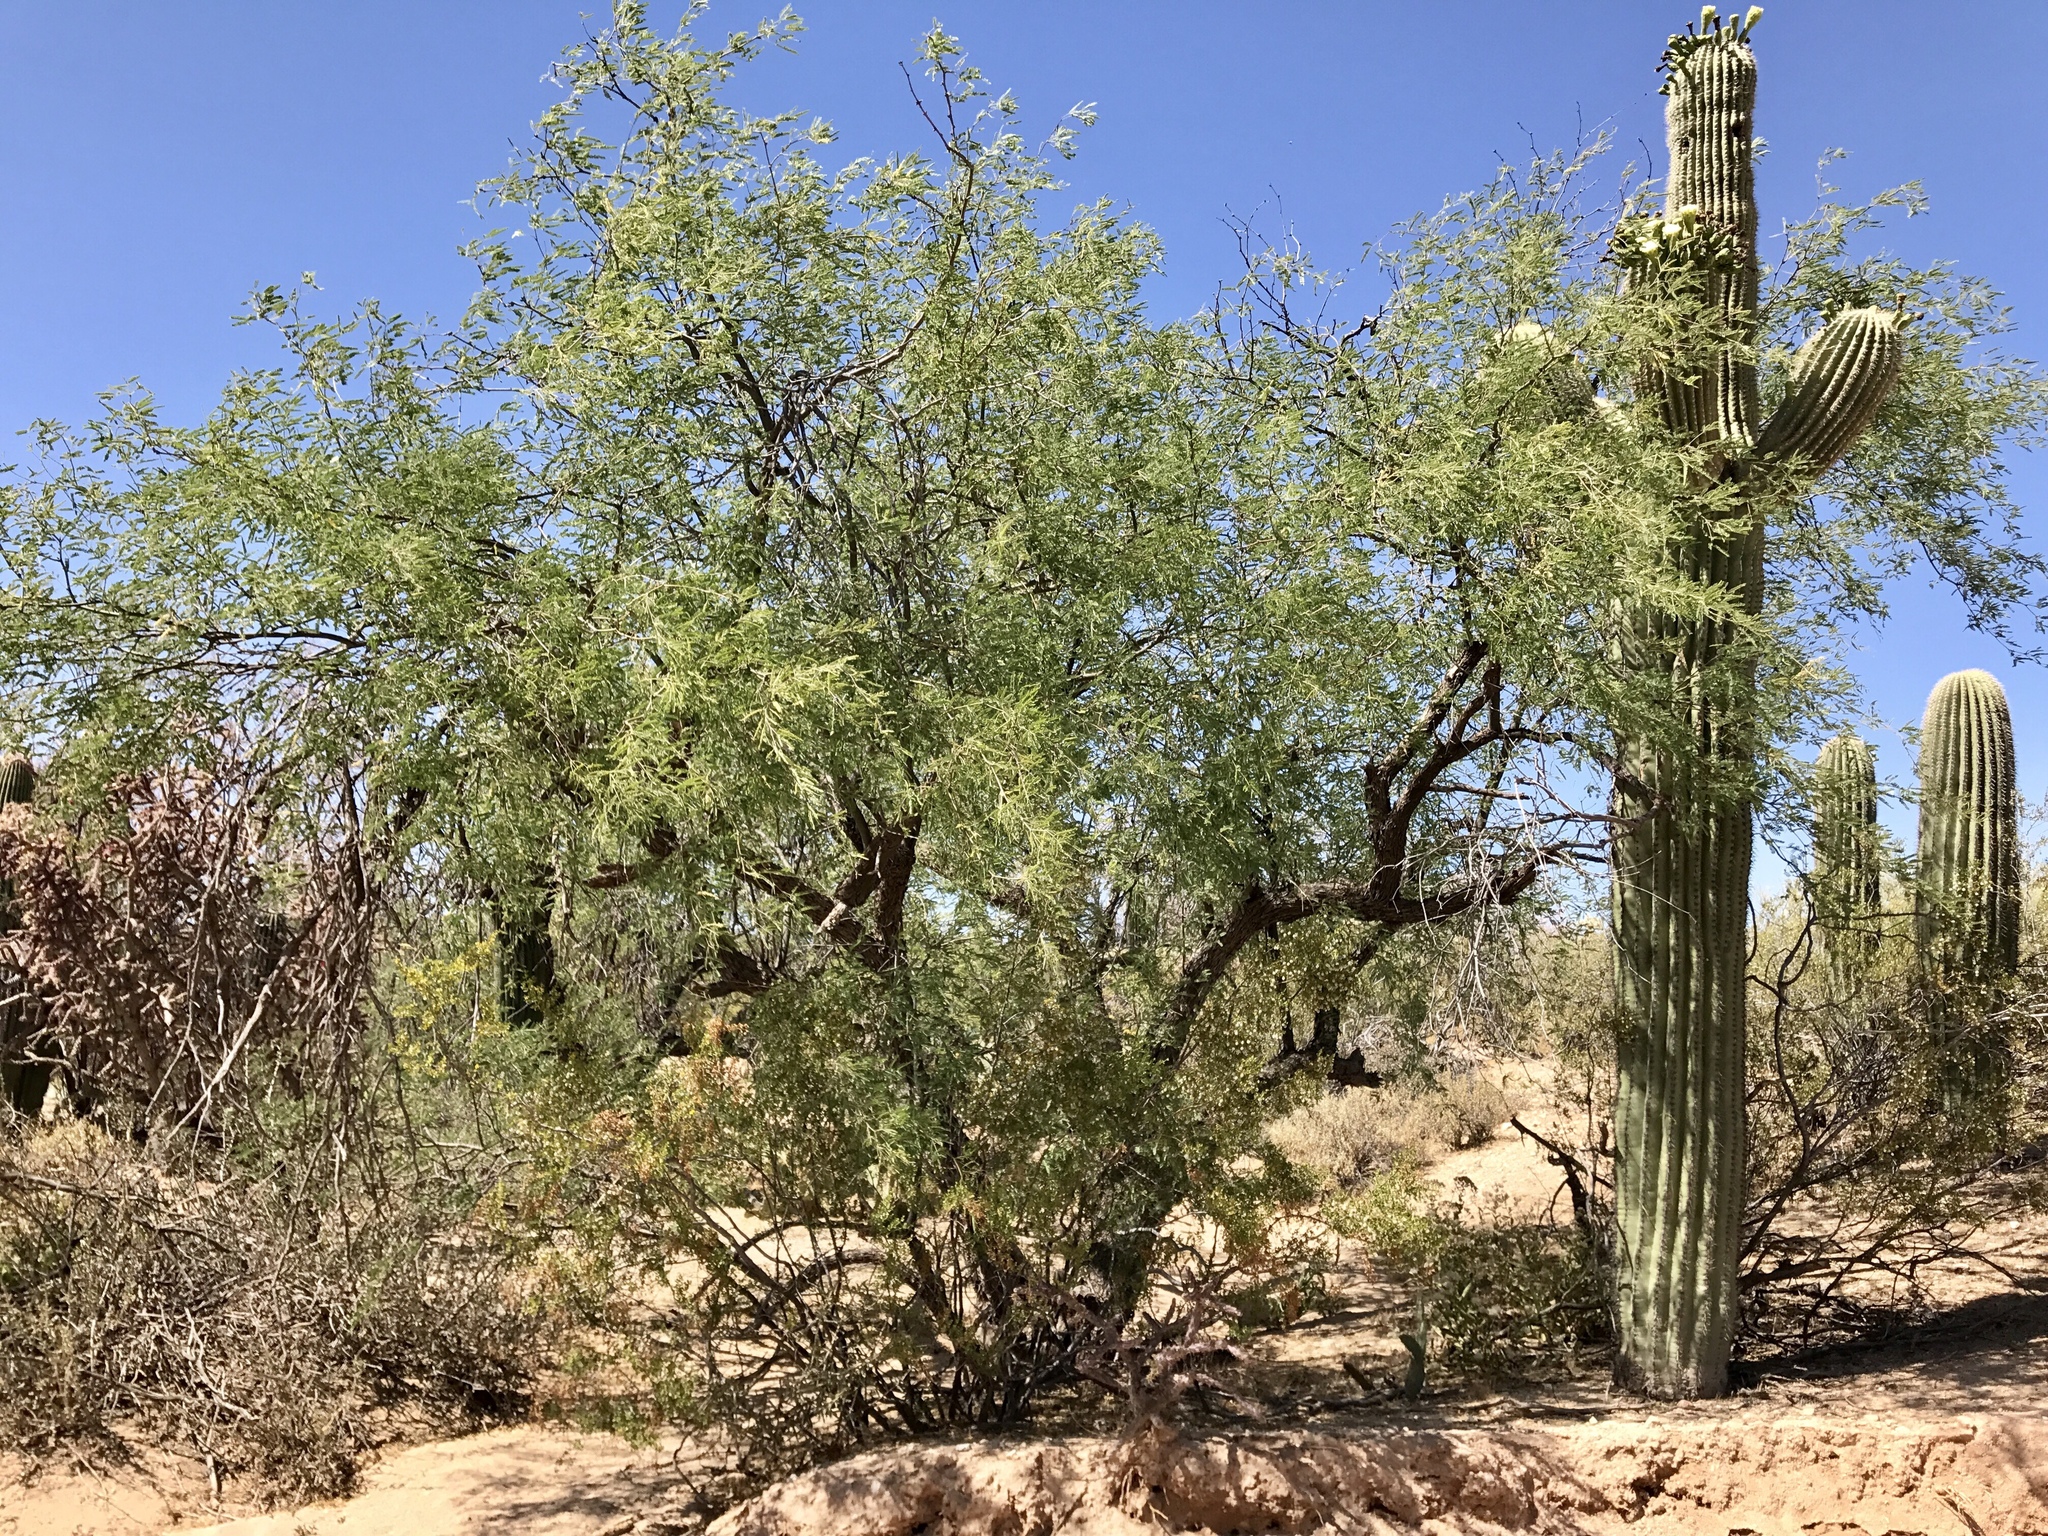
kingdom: Plantae
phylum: Tracheophyta
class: Magnoliopsida
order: Fabales
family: Fabaceae
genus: Prosopis
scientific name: Prosopis velutina
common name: Velvet mesquite
